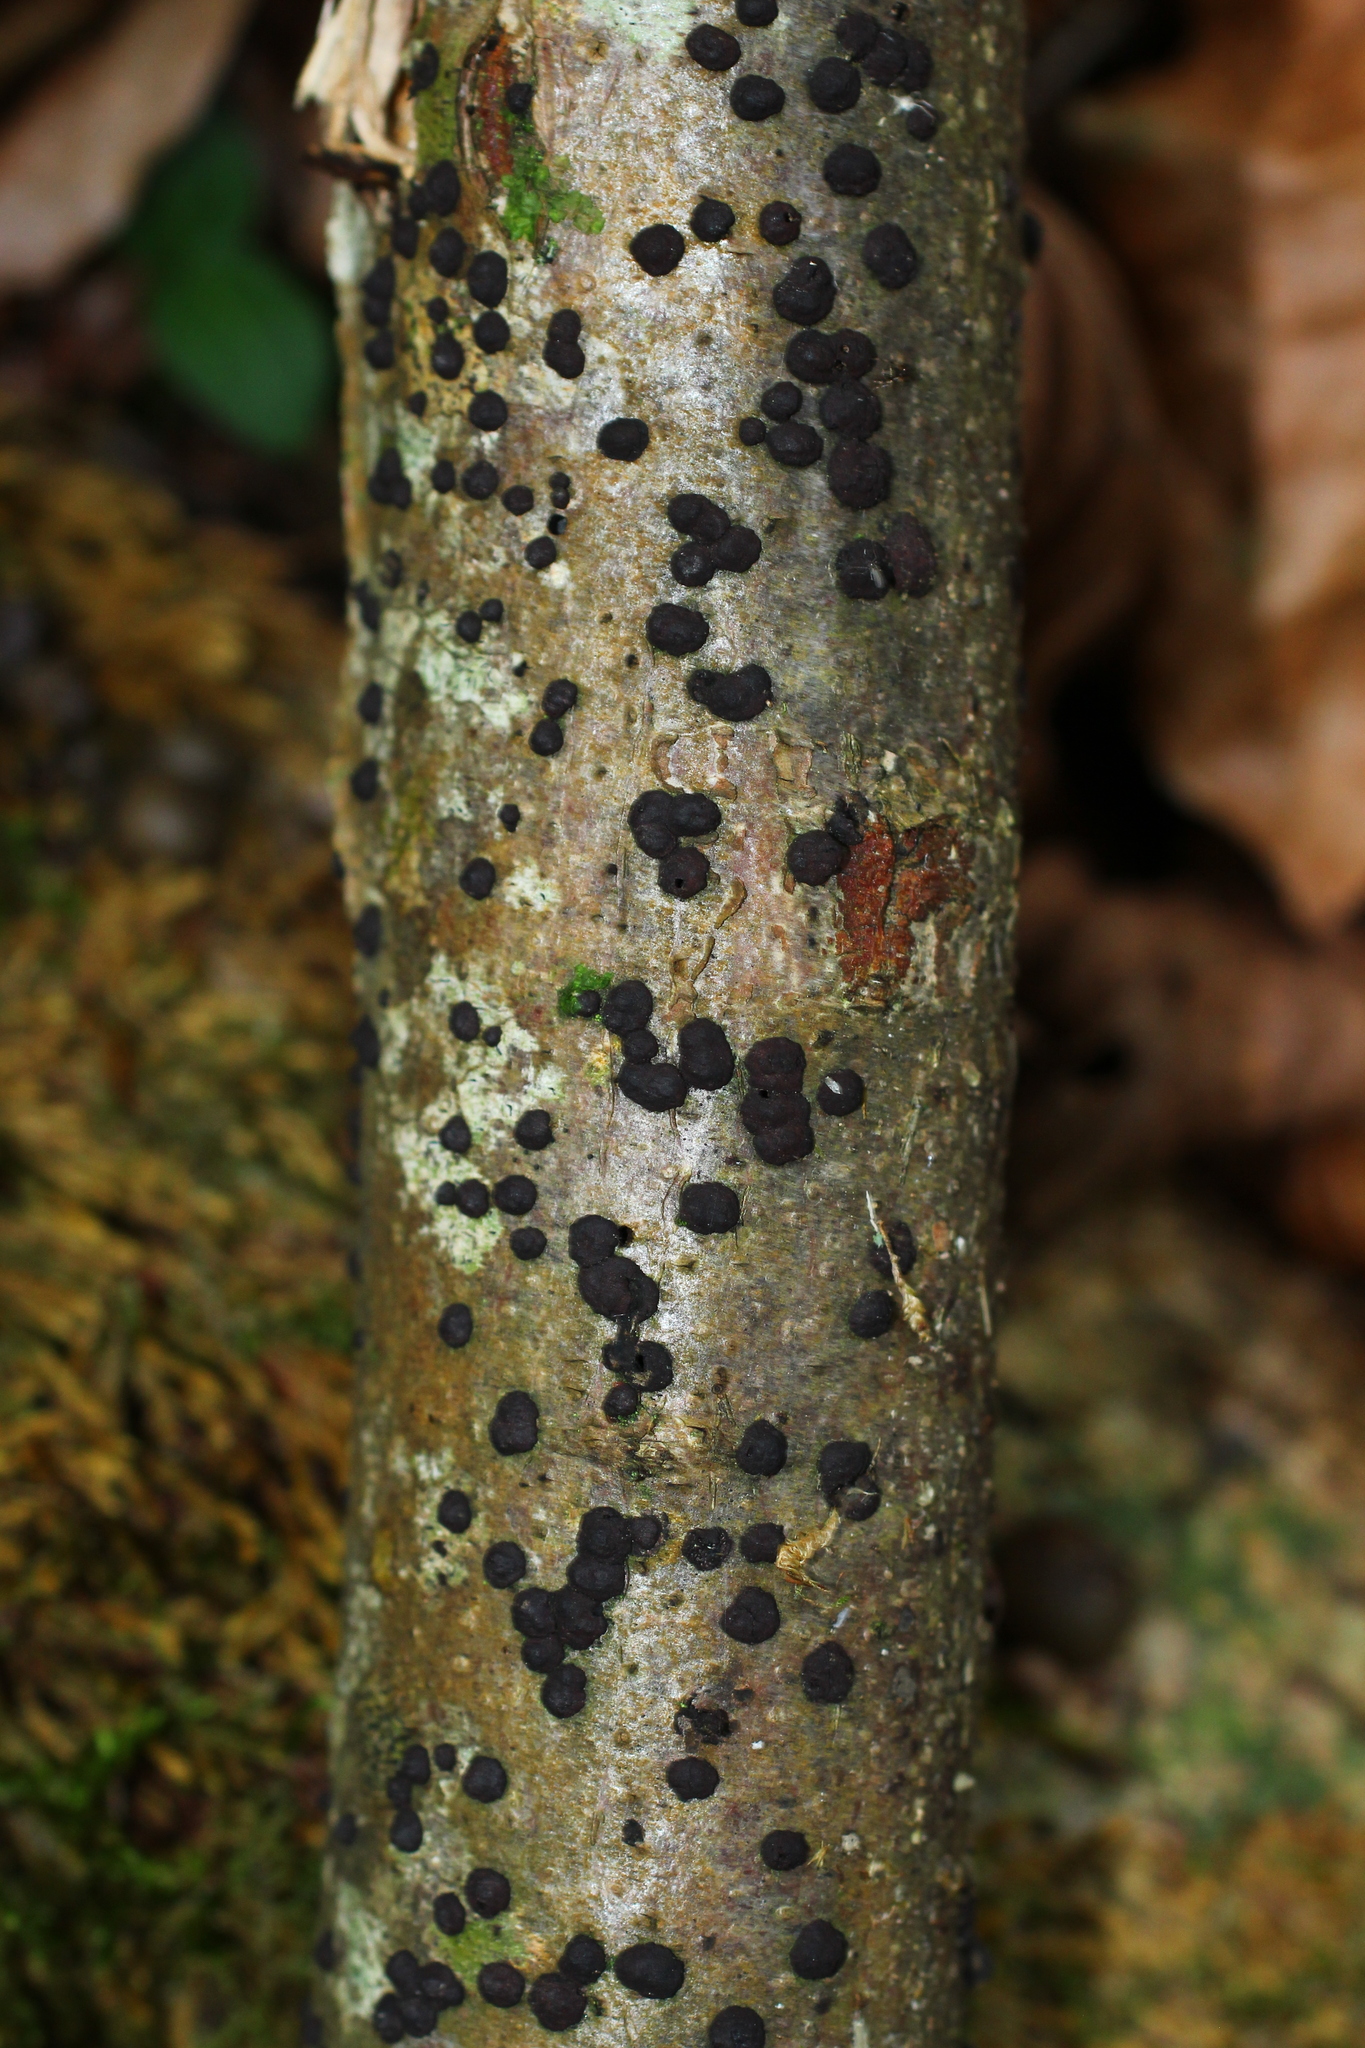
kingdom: Fungi
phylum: Ascomycota
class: Sordariomycetes
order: Xylariales
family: Hypoxylaceae
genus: Hypoxylon
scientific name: Hypoxylon fuscum
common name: Hazel woodwart
